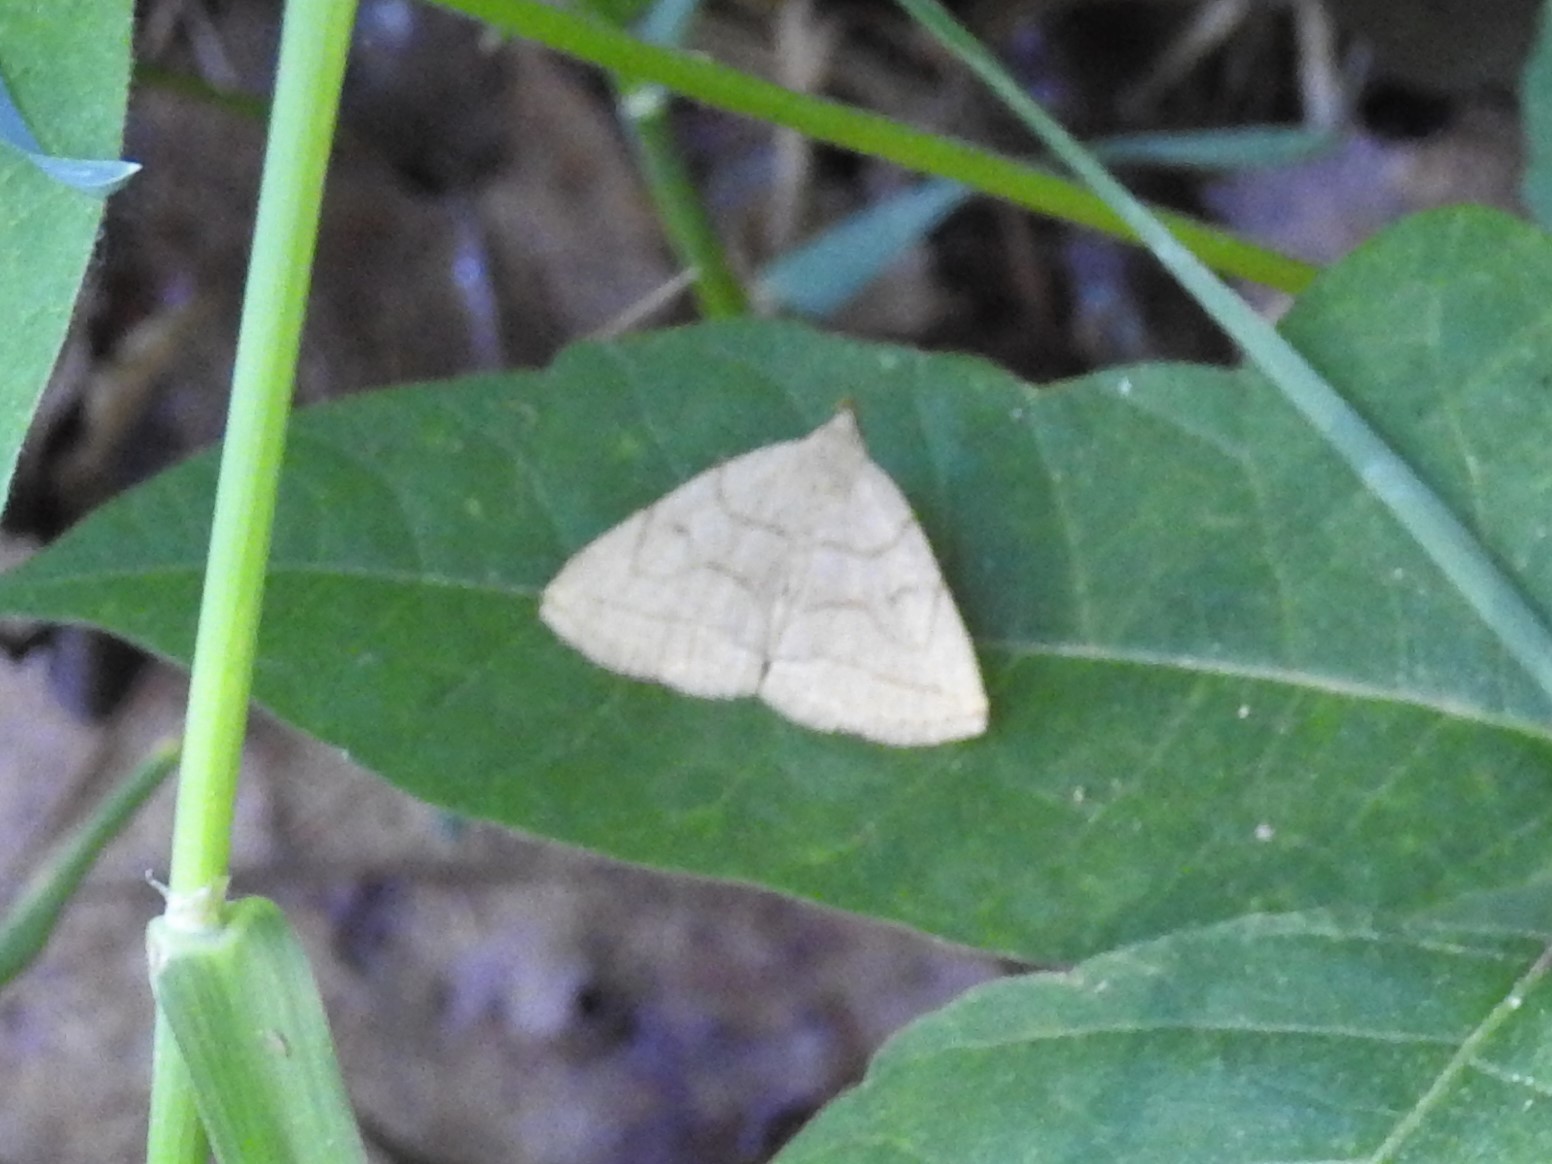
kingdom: Animalia
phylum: Arthropoda
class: Insecta
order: Lepidoptera
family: Erebidae
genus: Zanclognatha
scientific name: Zanclognatha pedipilalis
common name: Grayish fan-foot
